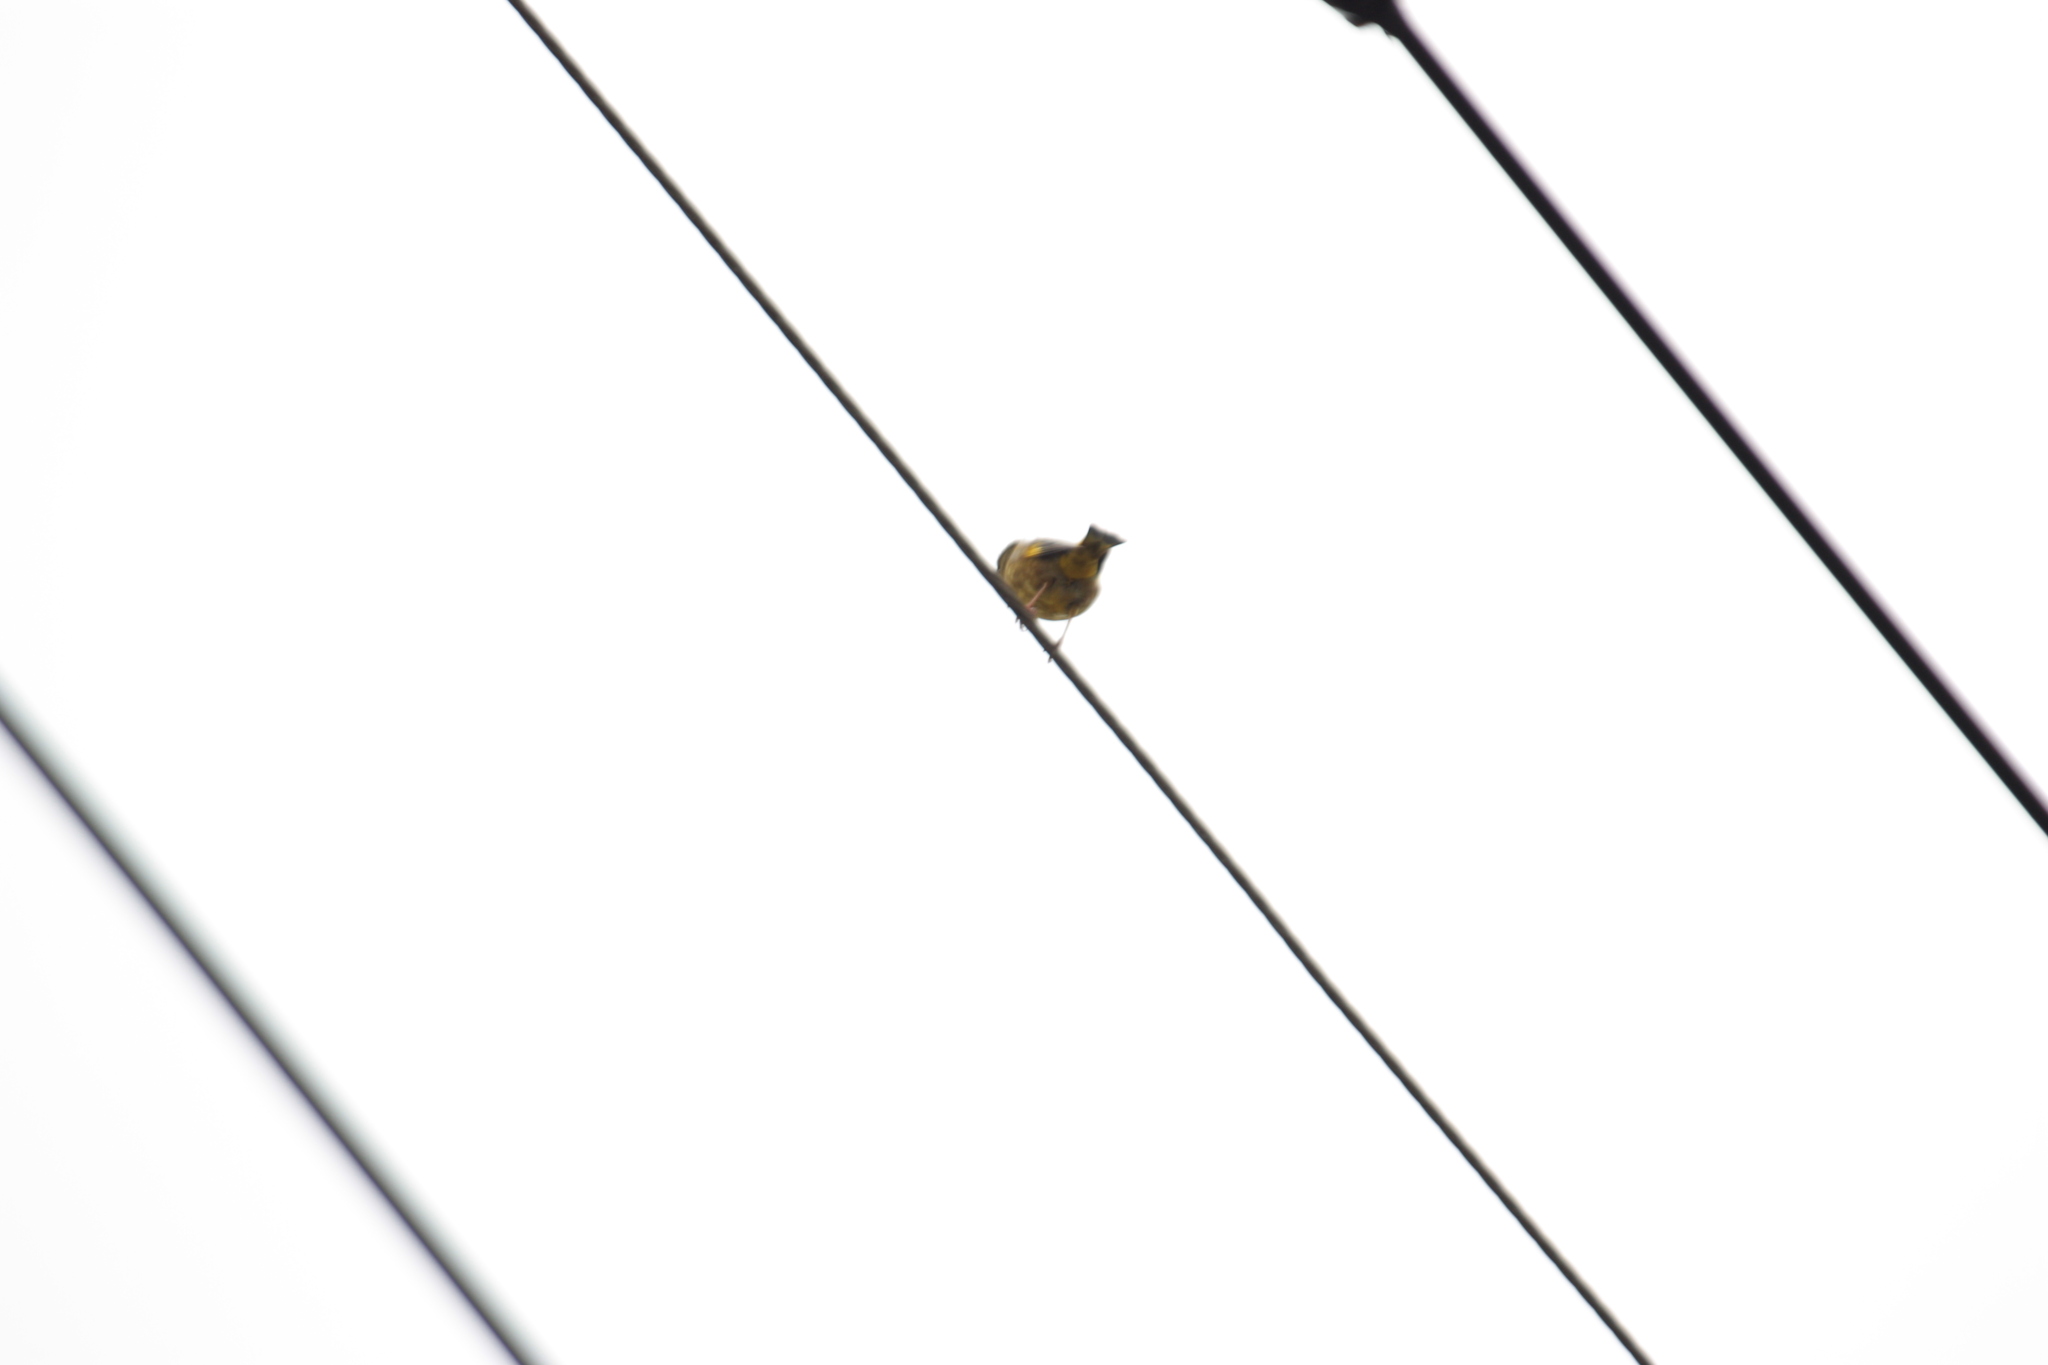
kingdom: Plantae
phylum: Tracheophyta
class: Liliopsida
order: Poales
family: Poaceae
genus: Chloris
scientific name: Chloris sinica
